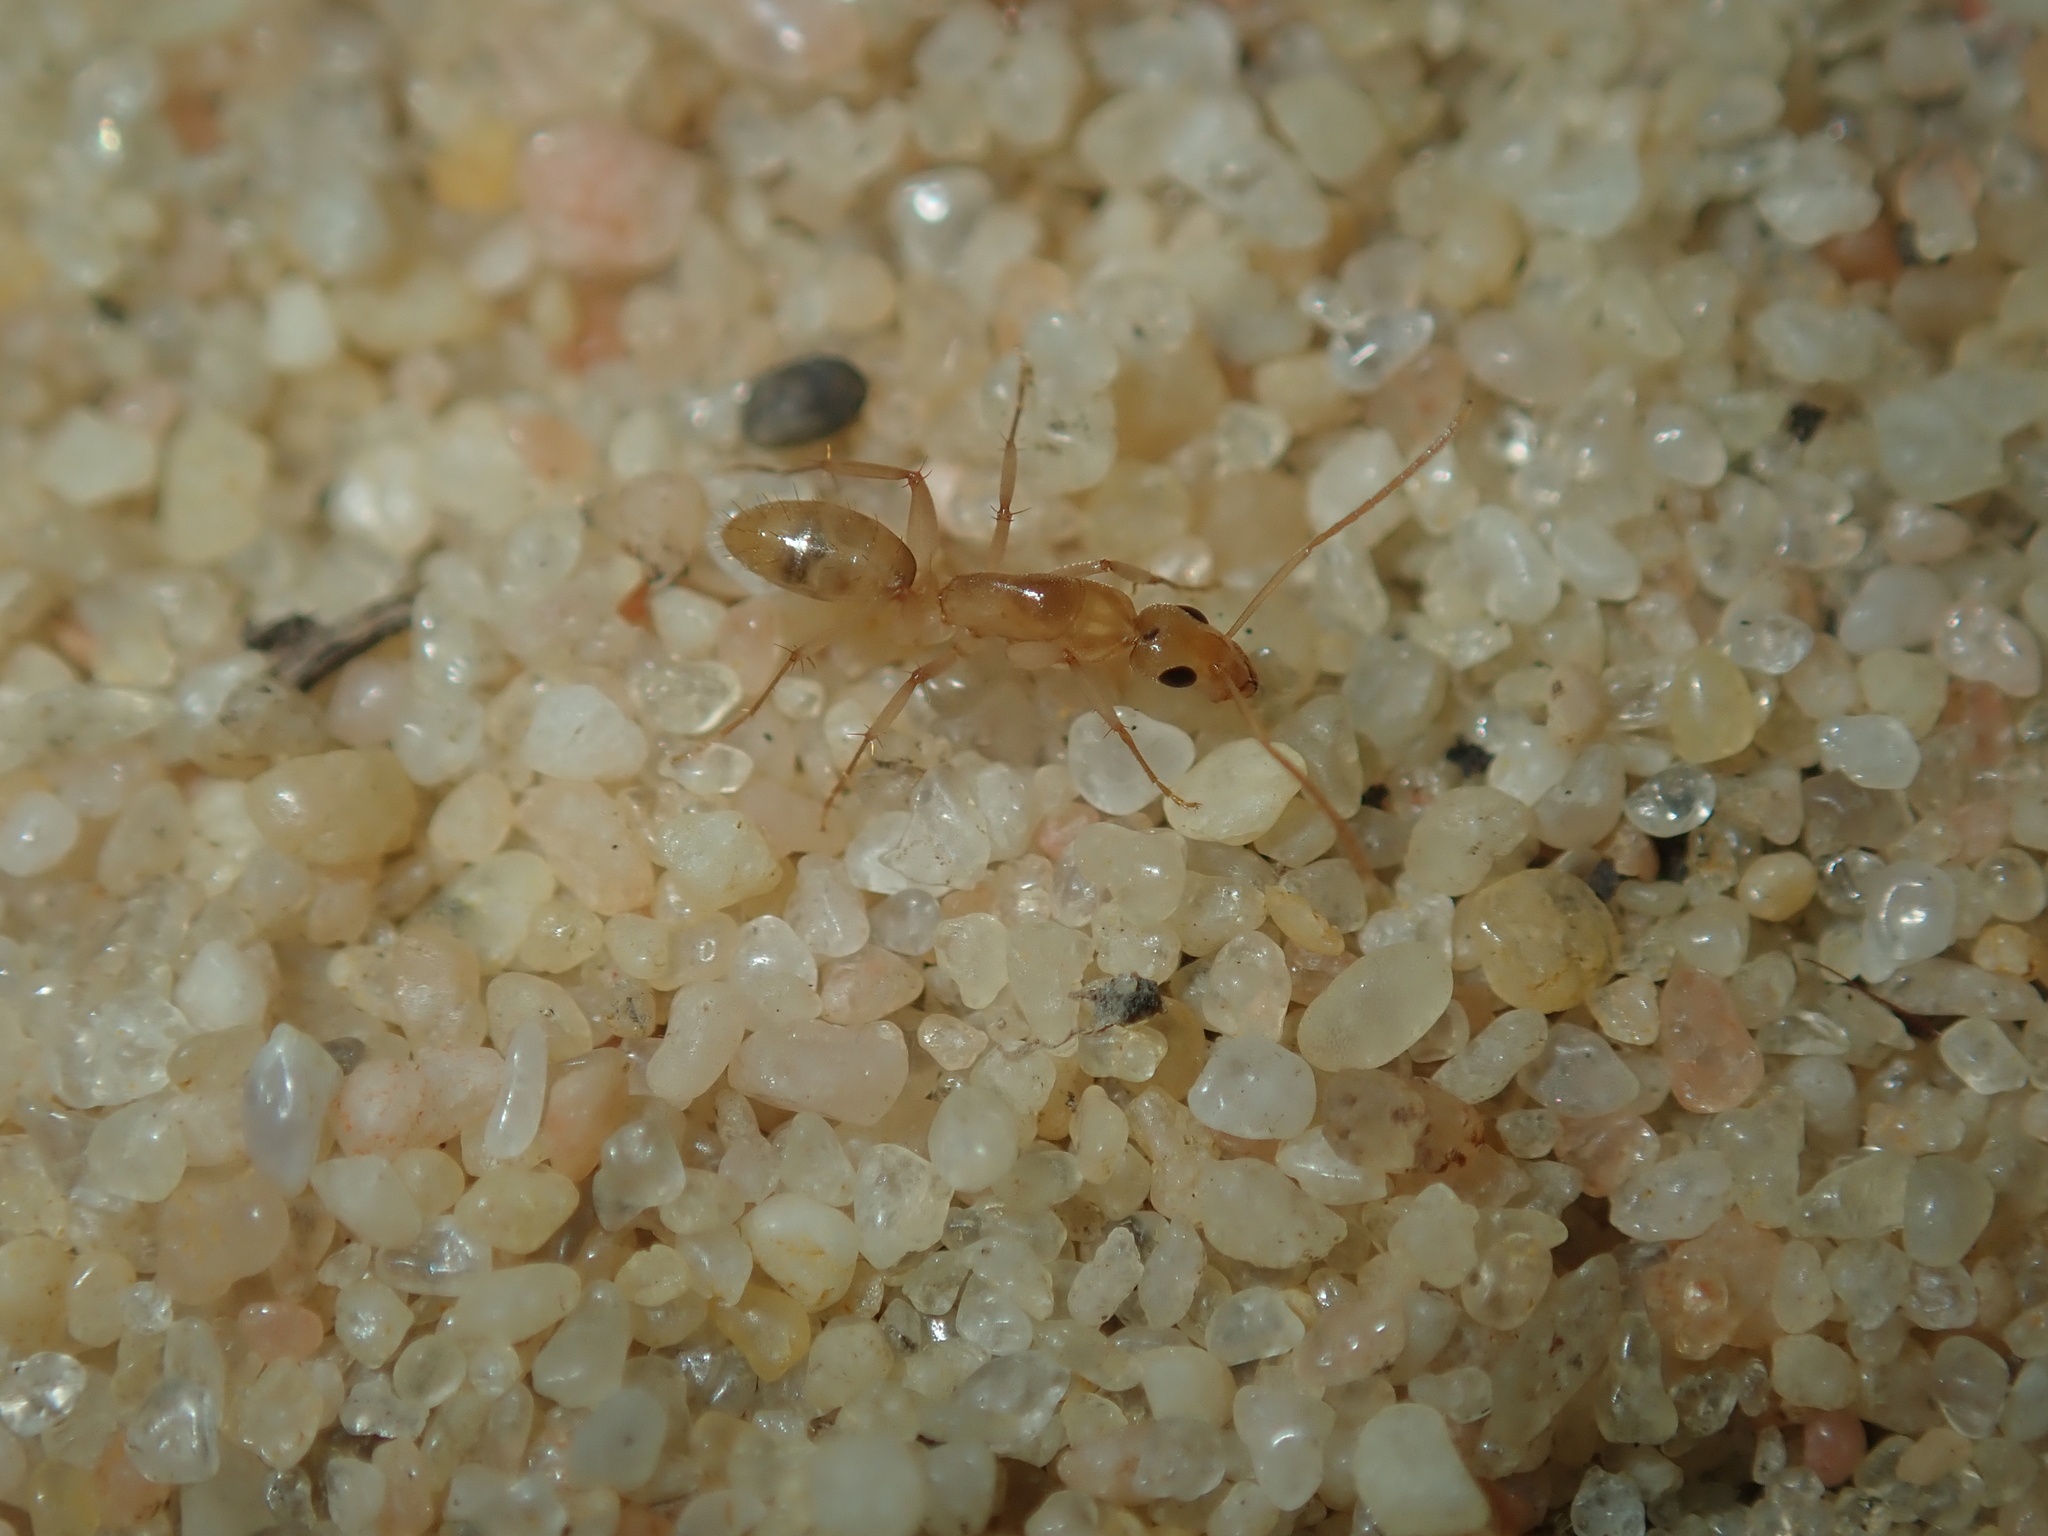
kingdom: Animalia
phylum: Arthropoda
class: Insecta
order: Hymenoptera
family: Formicidae
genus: Camponotus
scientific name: Camponotus scratius
